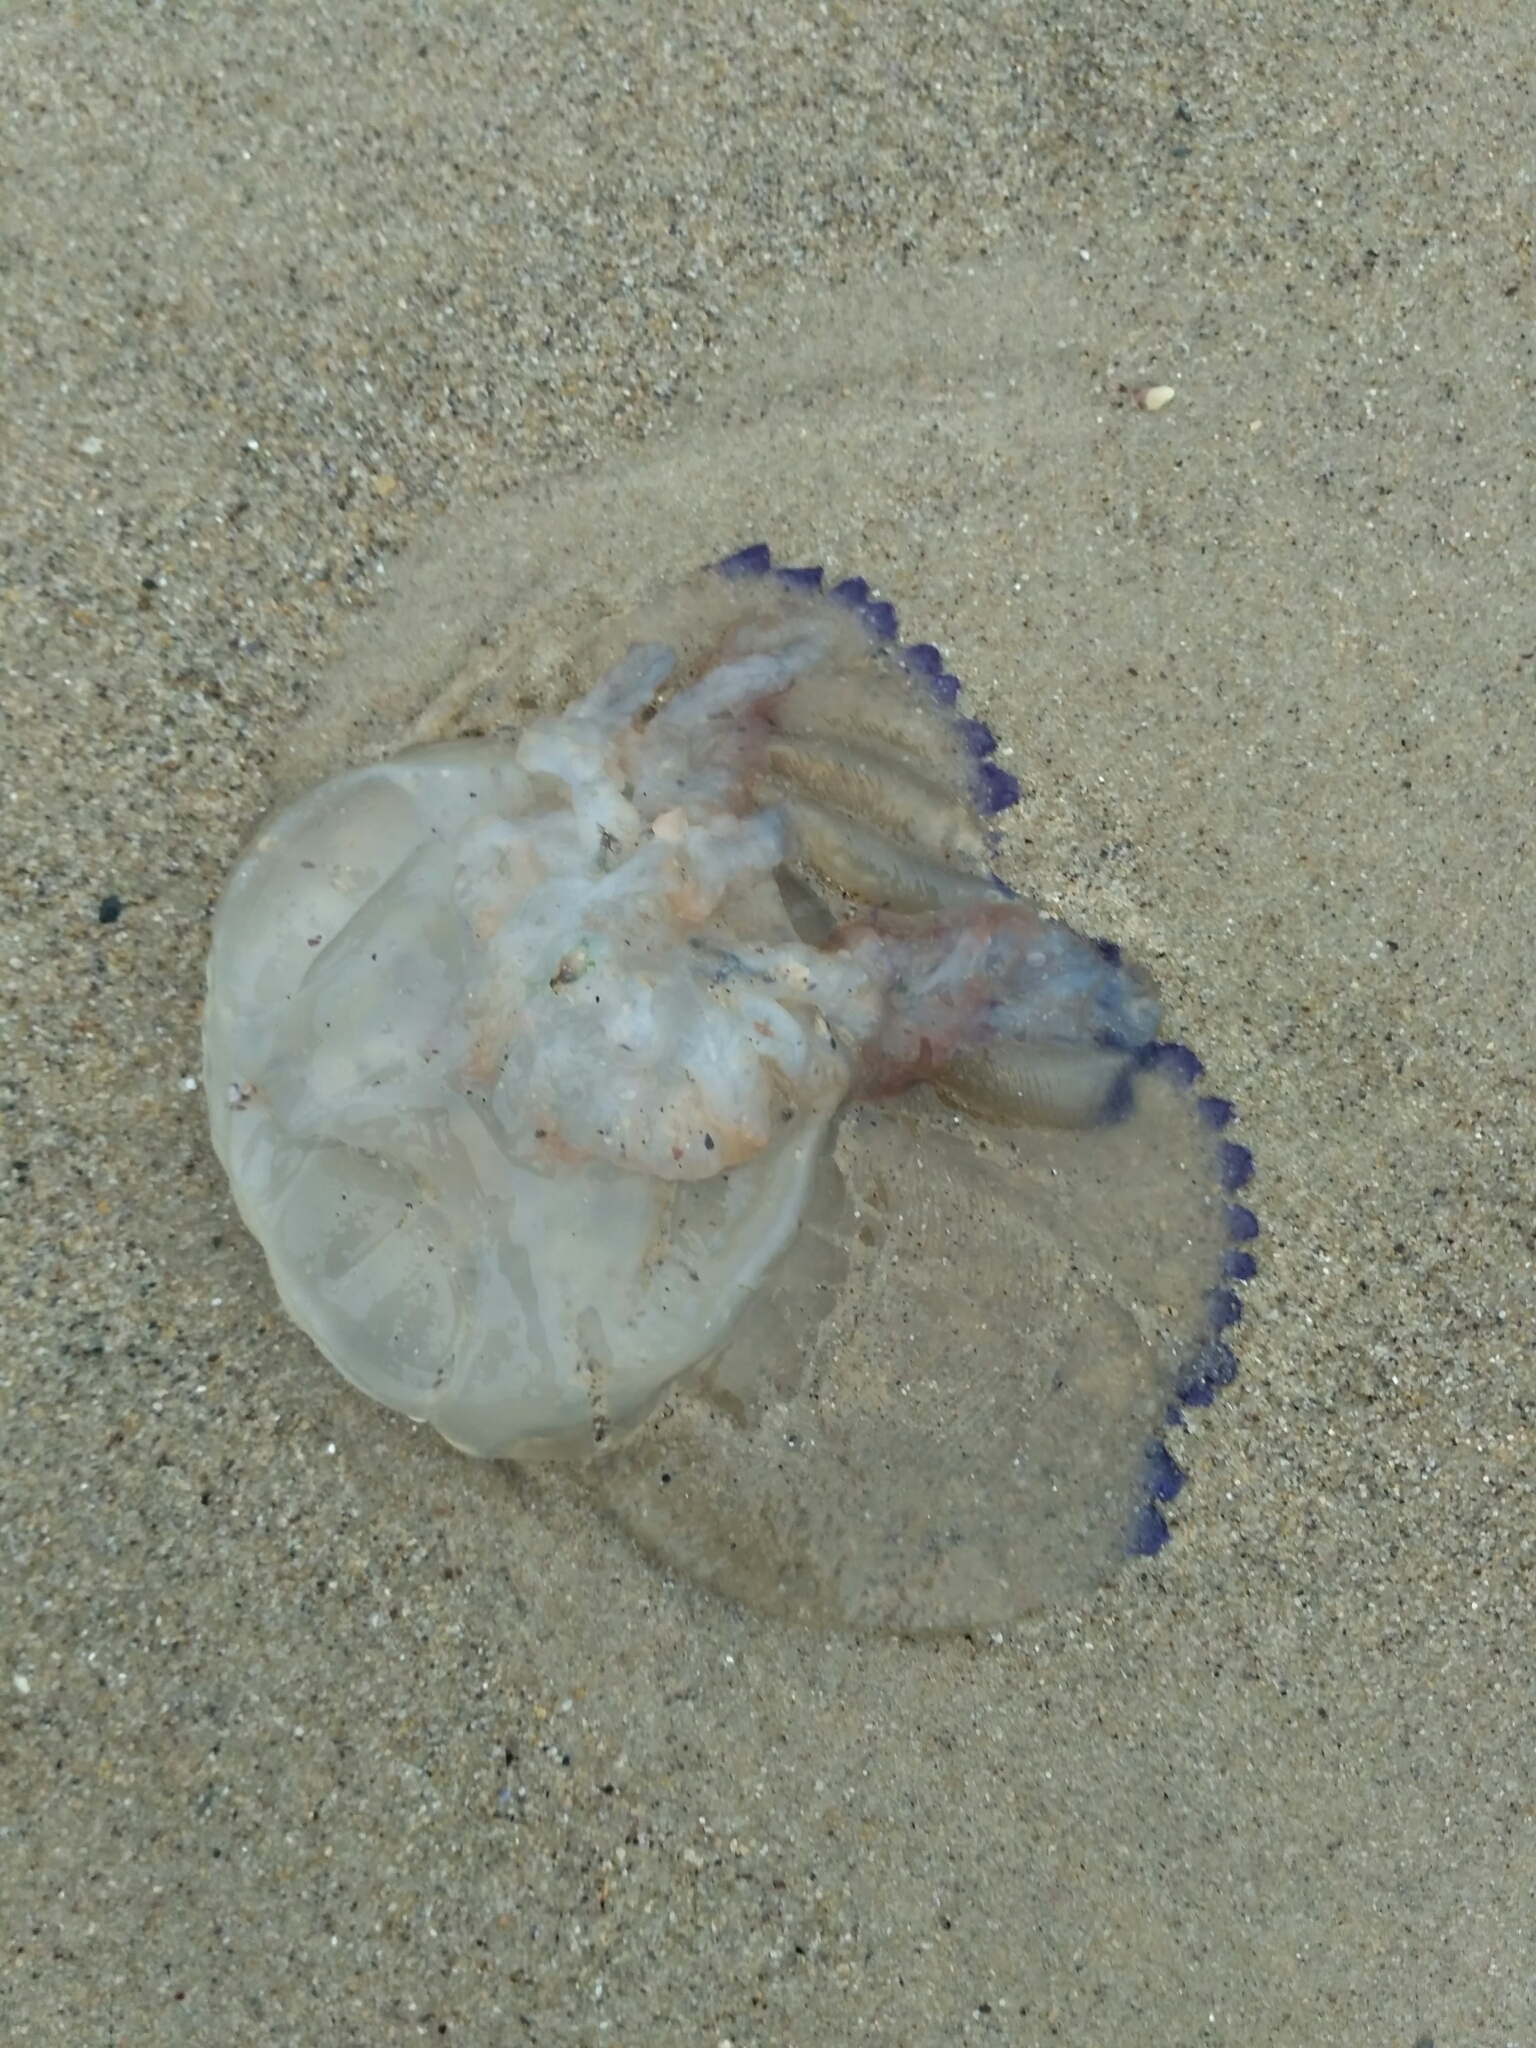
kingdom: Animalia
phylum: Cnidaria
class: Scyphozoa
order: Rhizostomeae
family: Rhizostomatidae
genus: Rhizostoma
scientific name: Rhizostoma pulmo
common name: Barrel jellyfish
